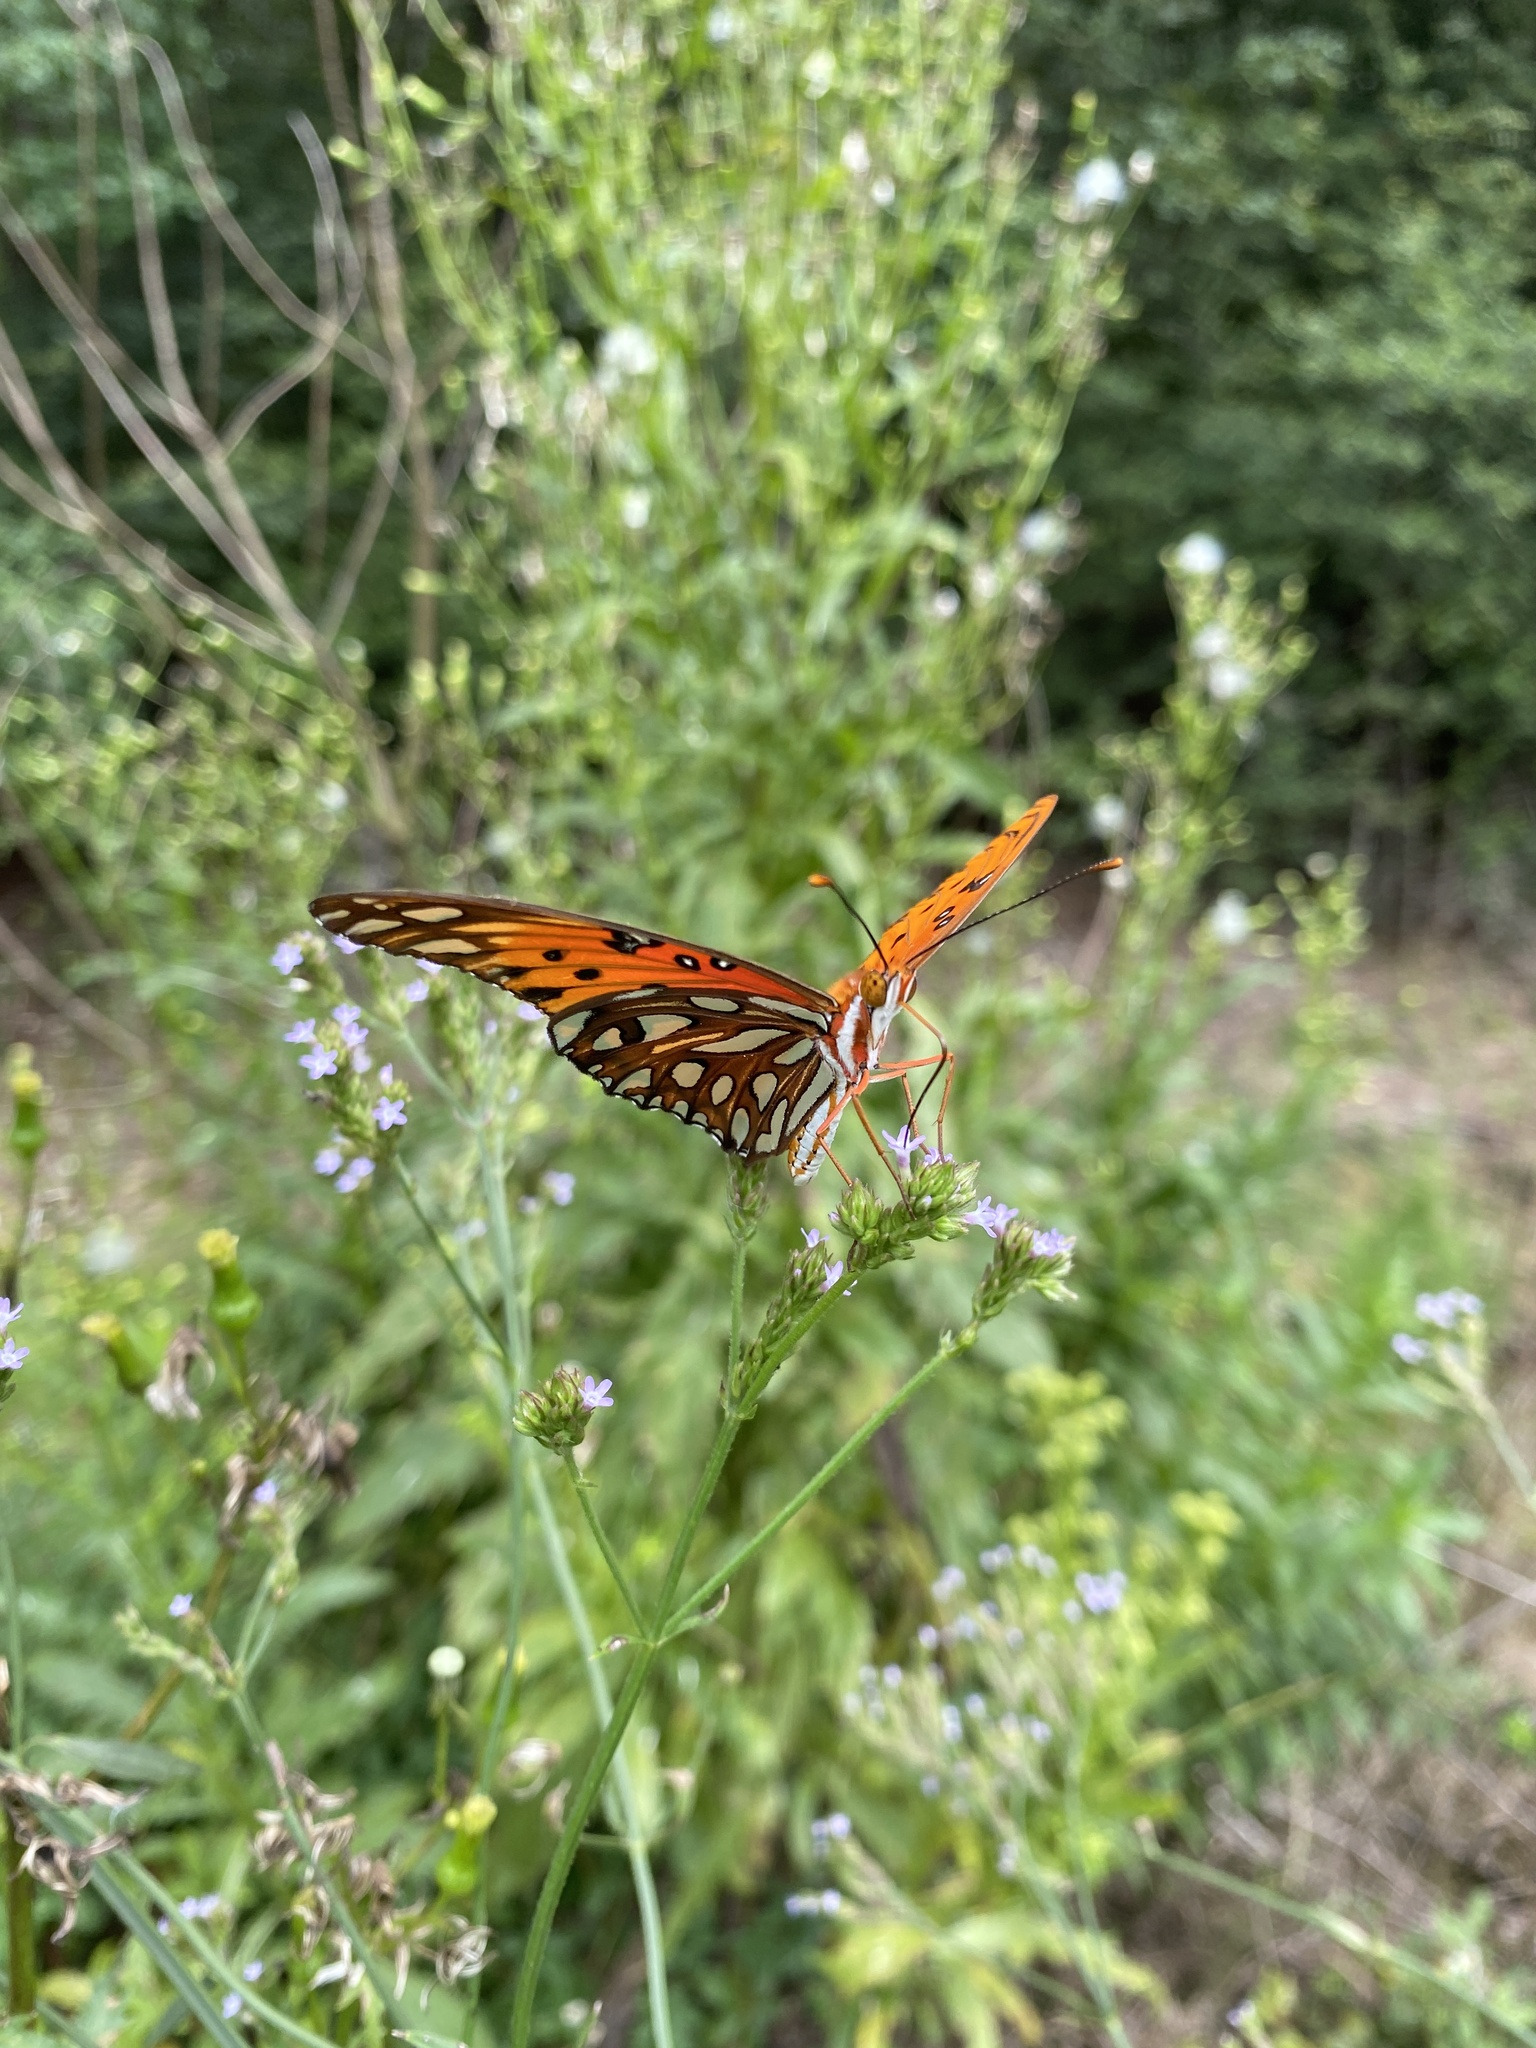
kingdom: Animalia
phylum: Arthropoda
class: Insecta
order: Lepidoptera
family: Nymphalidae
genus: Dione
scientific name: Dione vanillae
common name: Gulf fritillary
